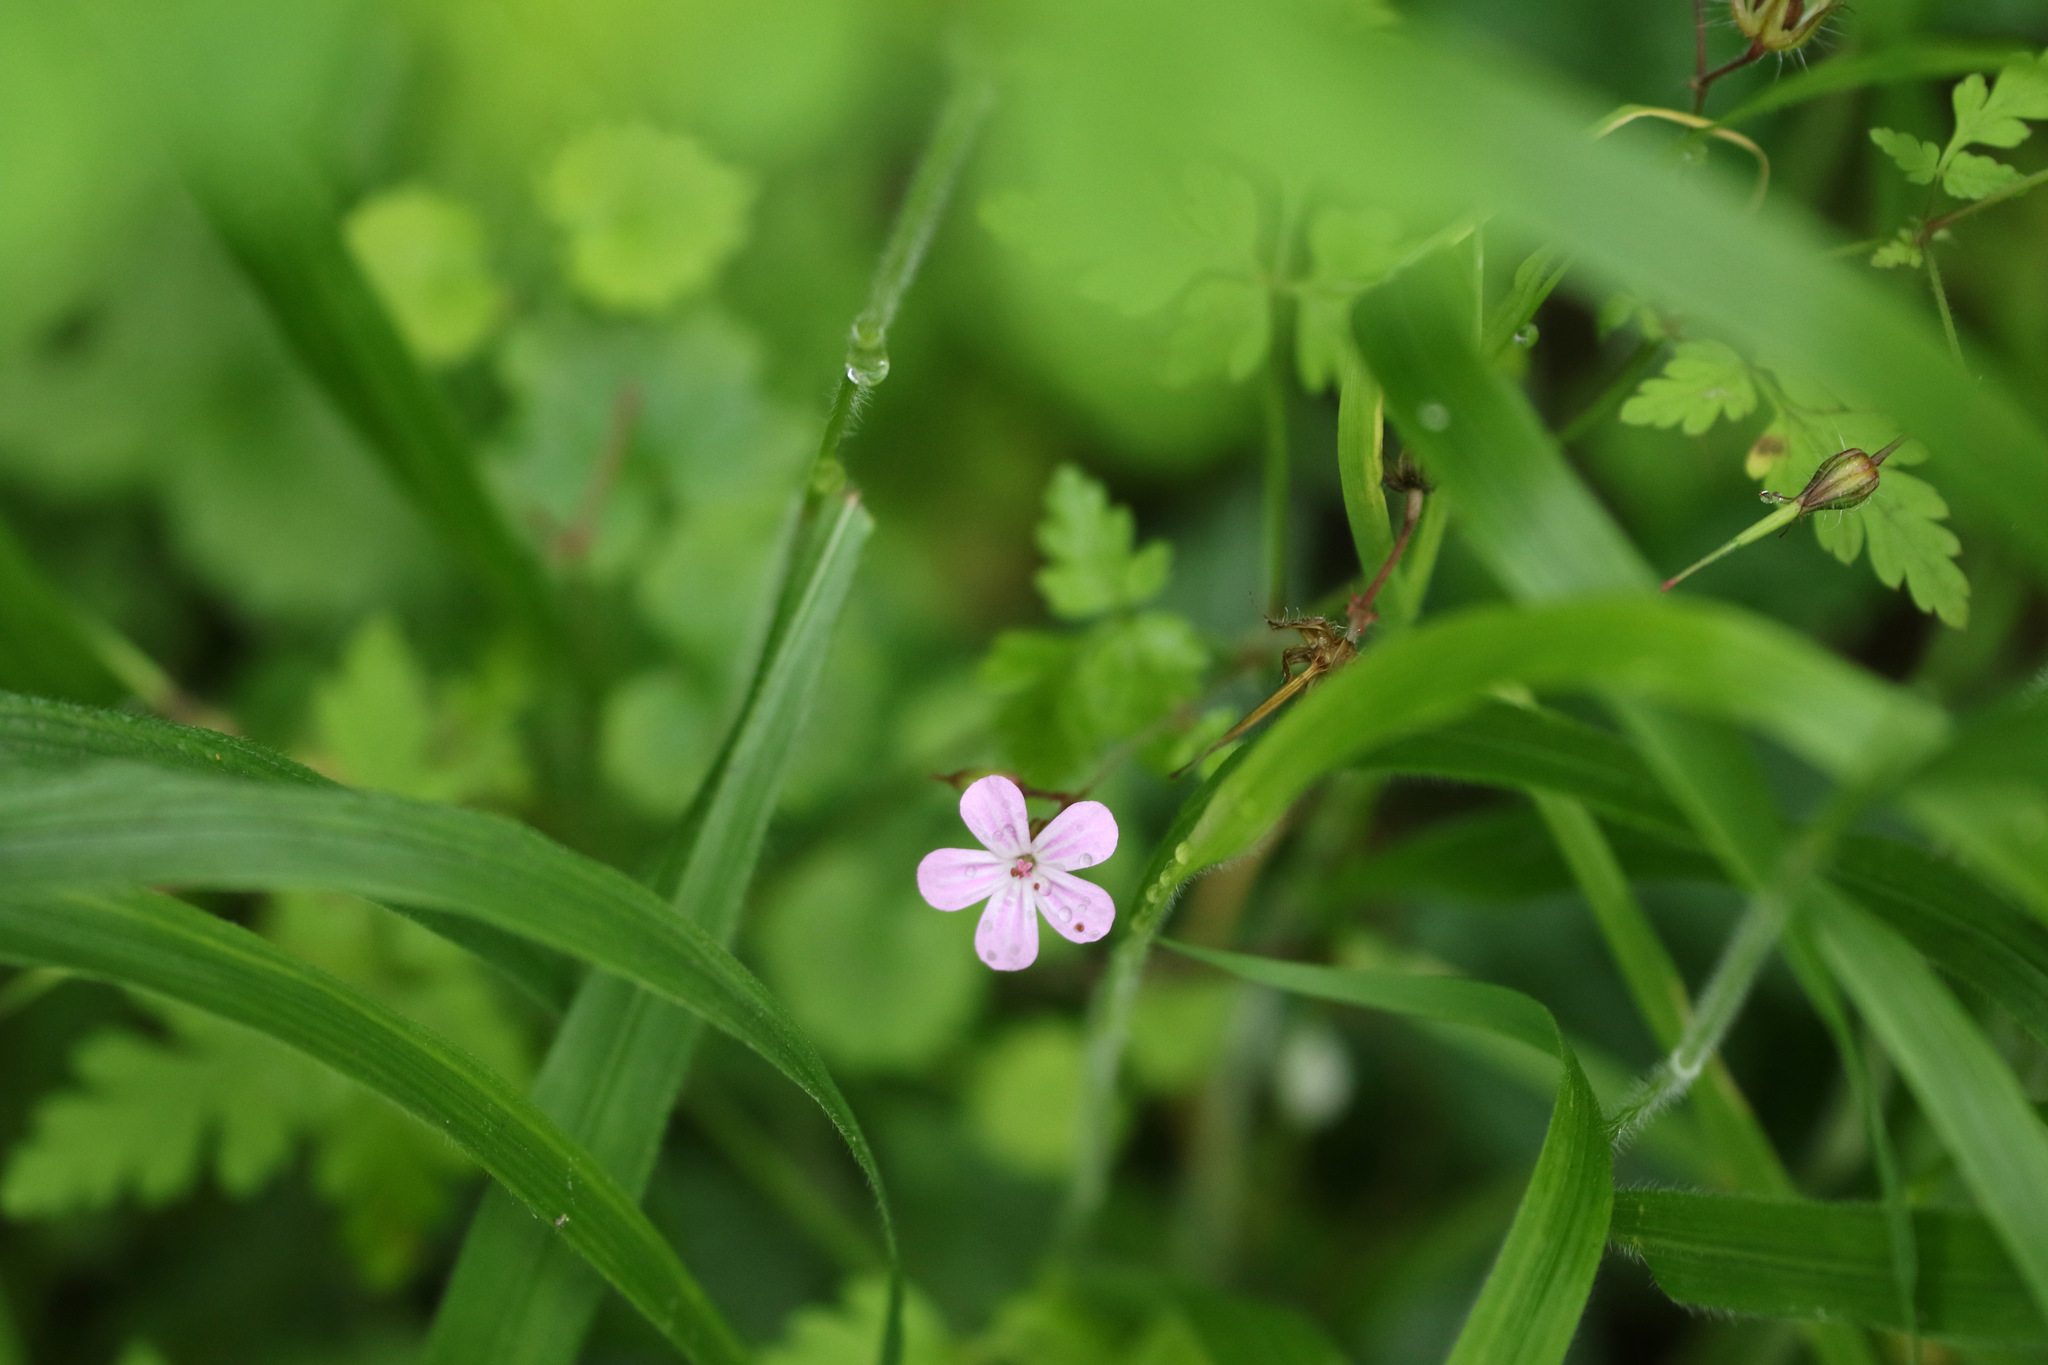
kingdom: Plantae
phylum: Tracheophyta
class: Magnoliopsida
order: Geraniales
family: Geraniaceae
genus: Geranium
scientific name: Geranium robertianum
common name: Herb-robert
